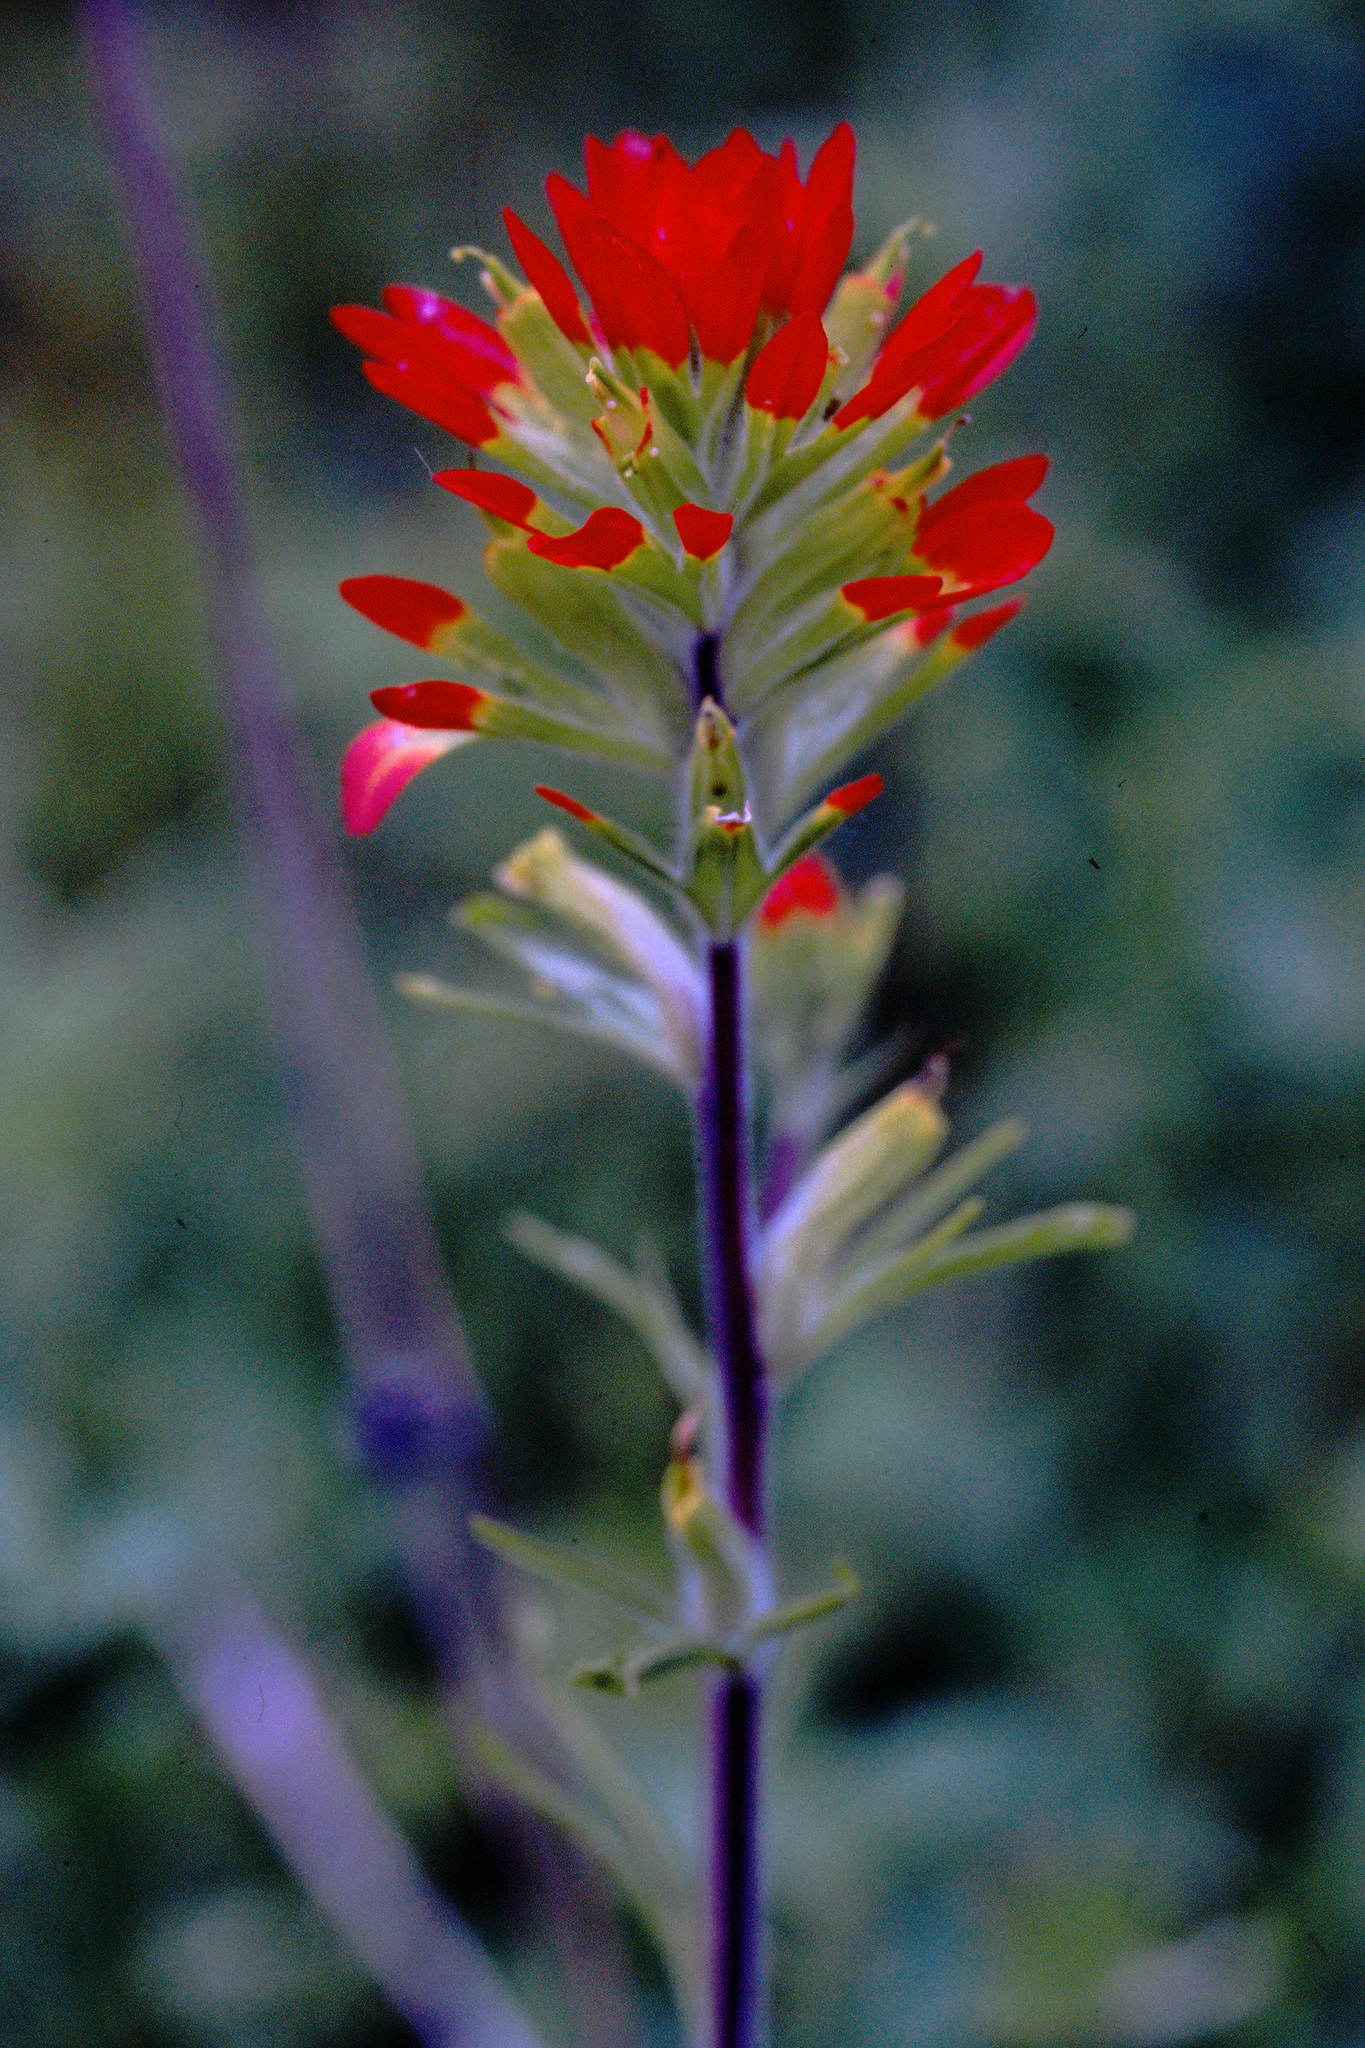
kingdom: Plantae
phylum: Tracheophyta
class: Magnoliopsida
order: Lamiales
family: Orobanchaceae
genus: Castilleja
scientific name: Castilleja coccinea
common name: Scarlet paintbrush
